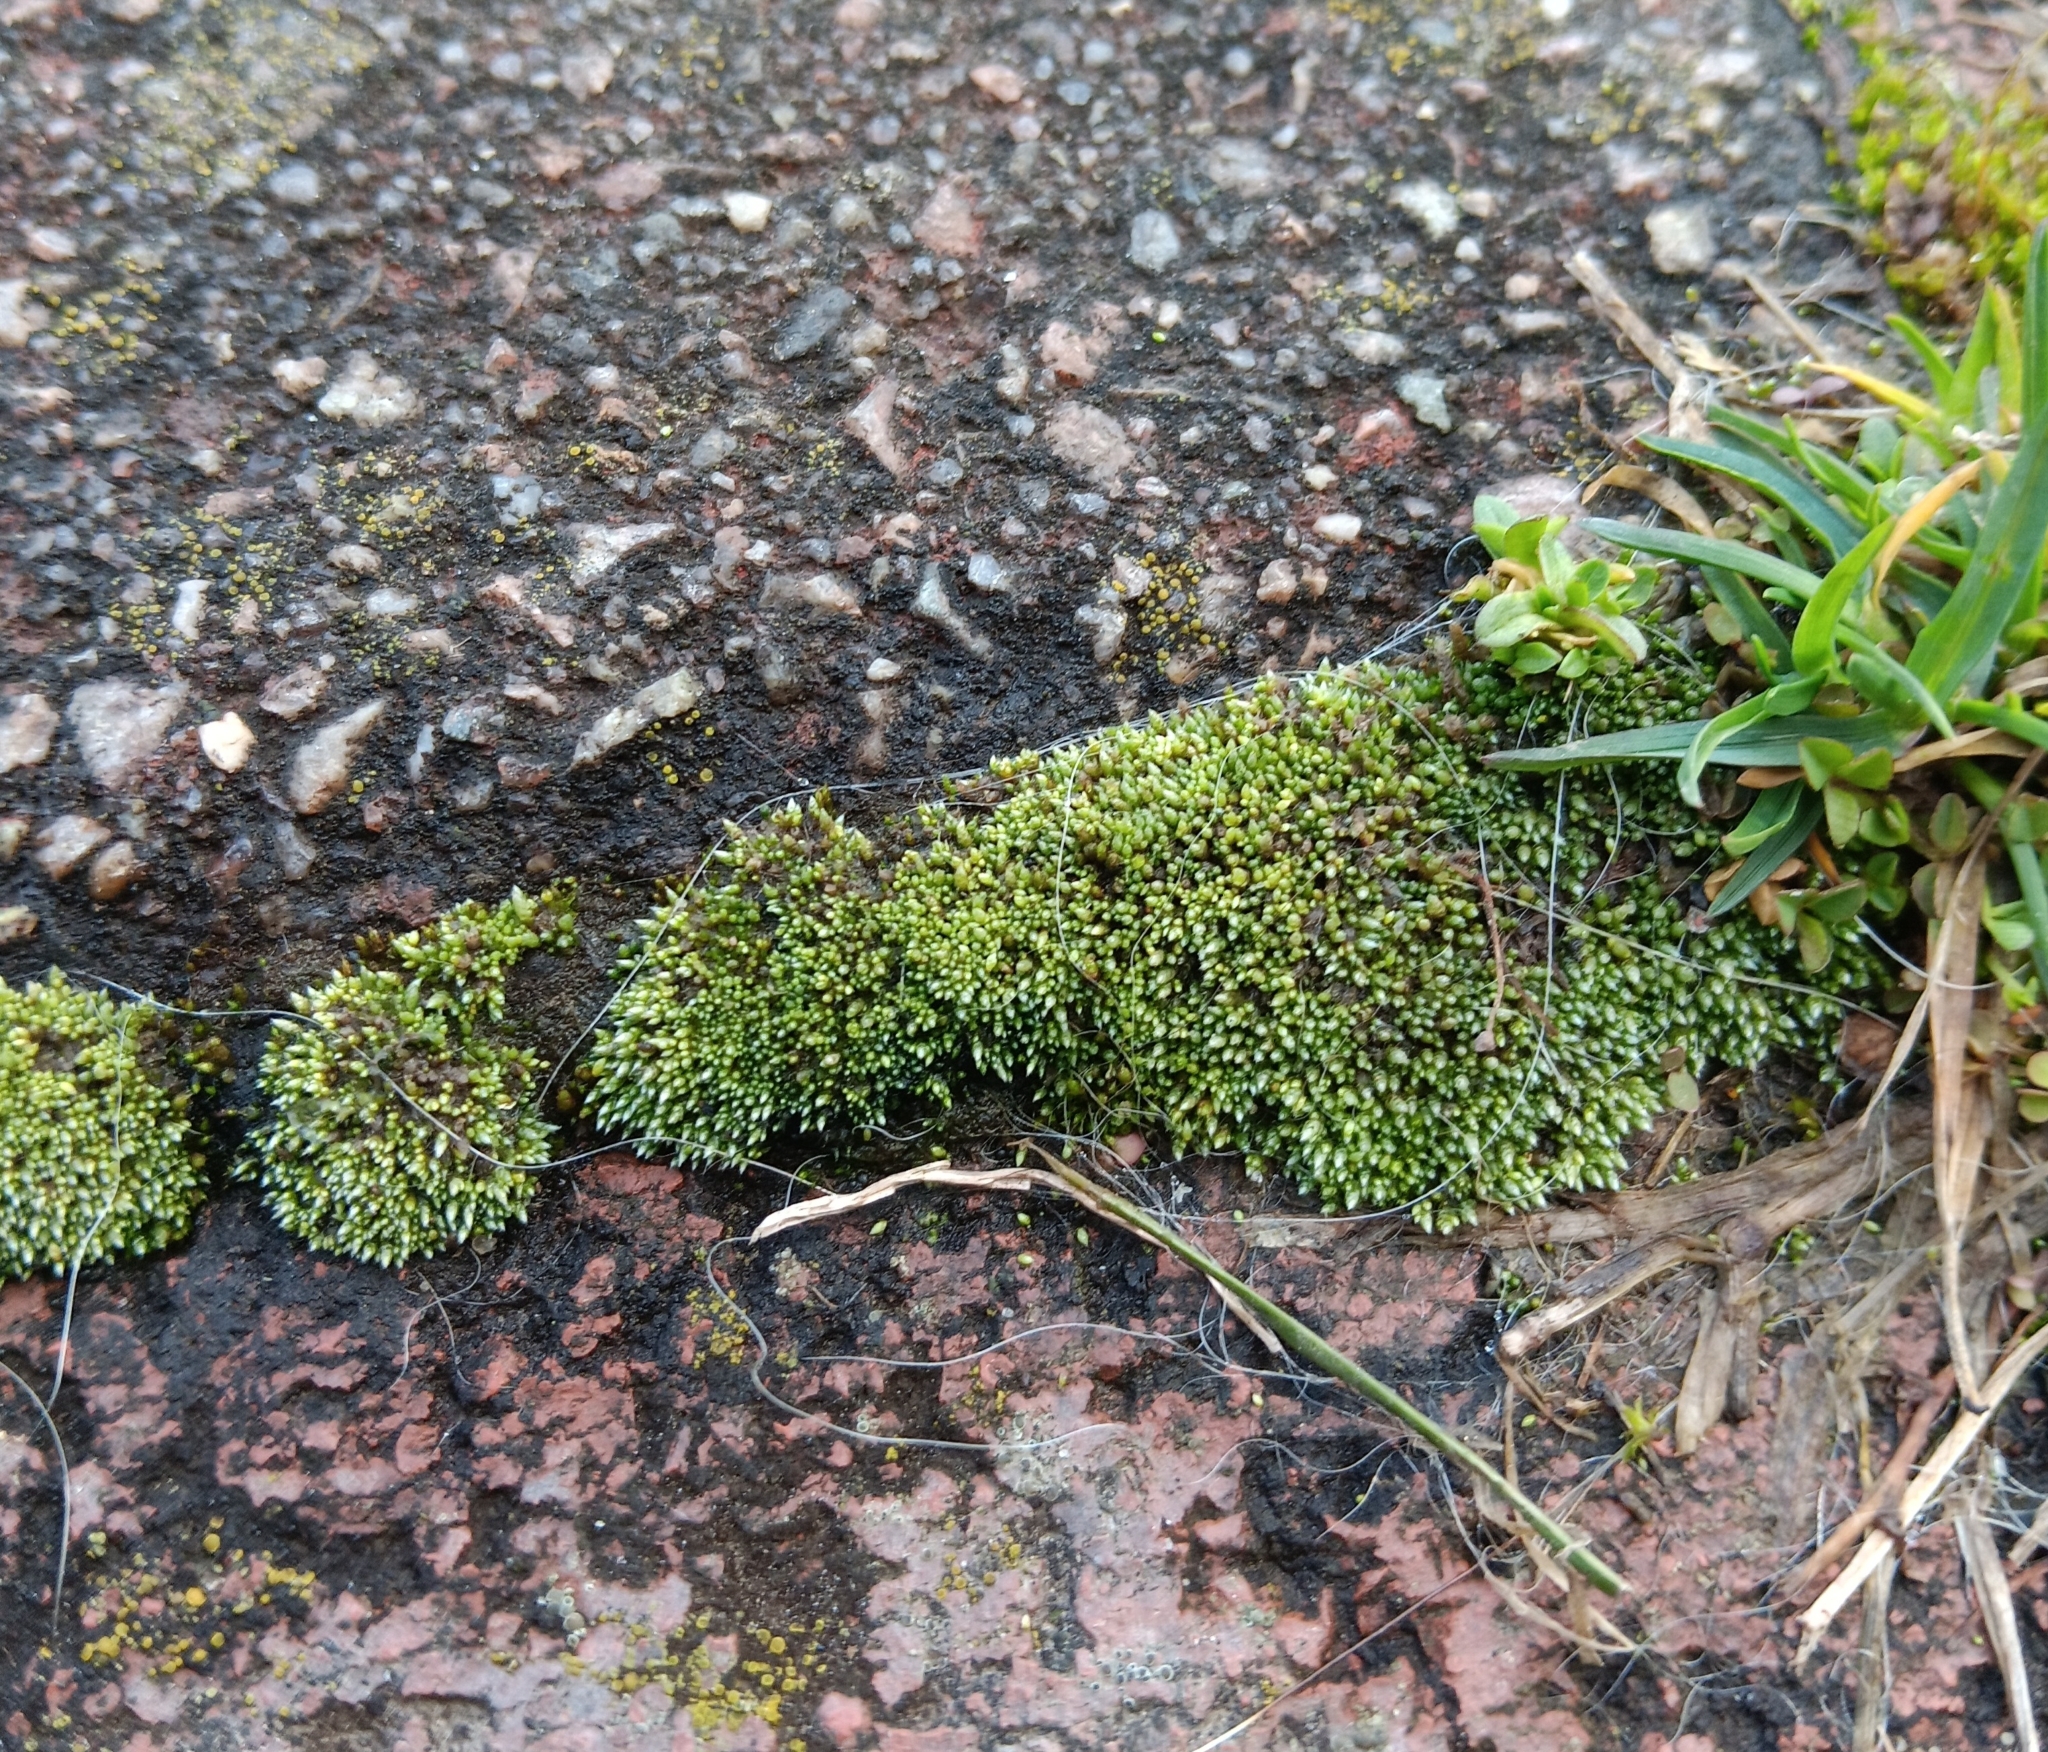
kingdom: Plantae
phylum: Bryophyta
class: Bryopsida
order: Bryales
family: Bryaceae
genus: Bryum
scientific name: Bryum argenteum
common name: Silver-moss
